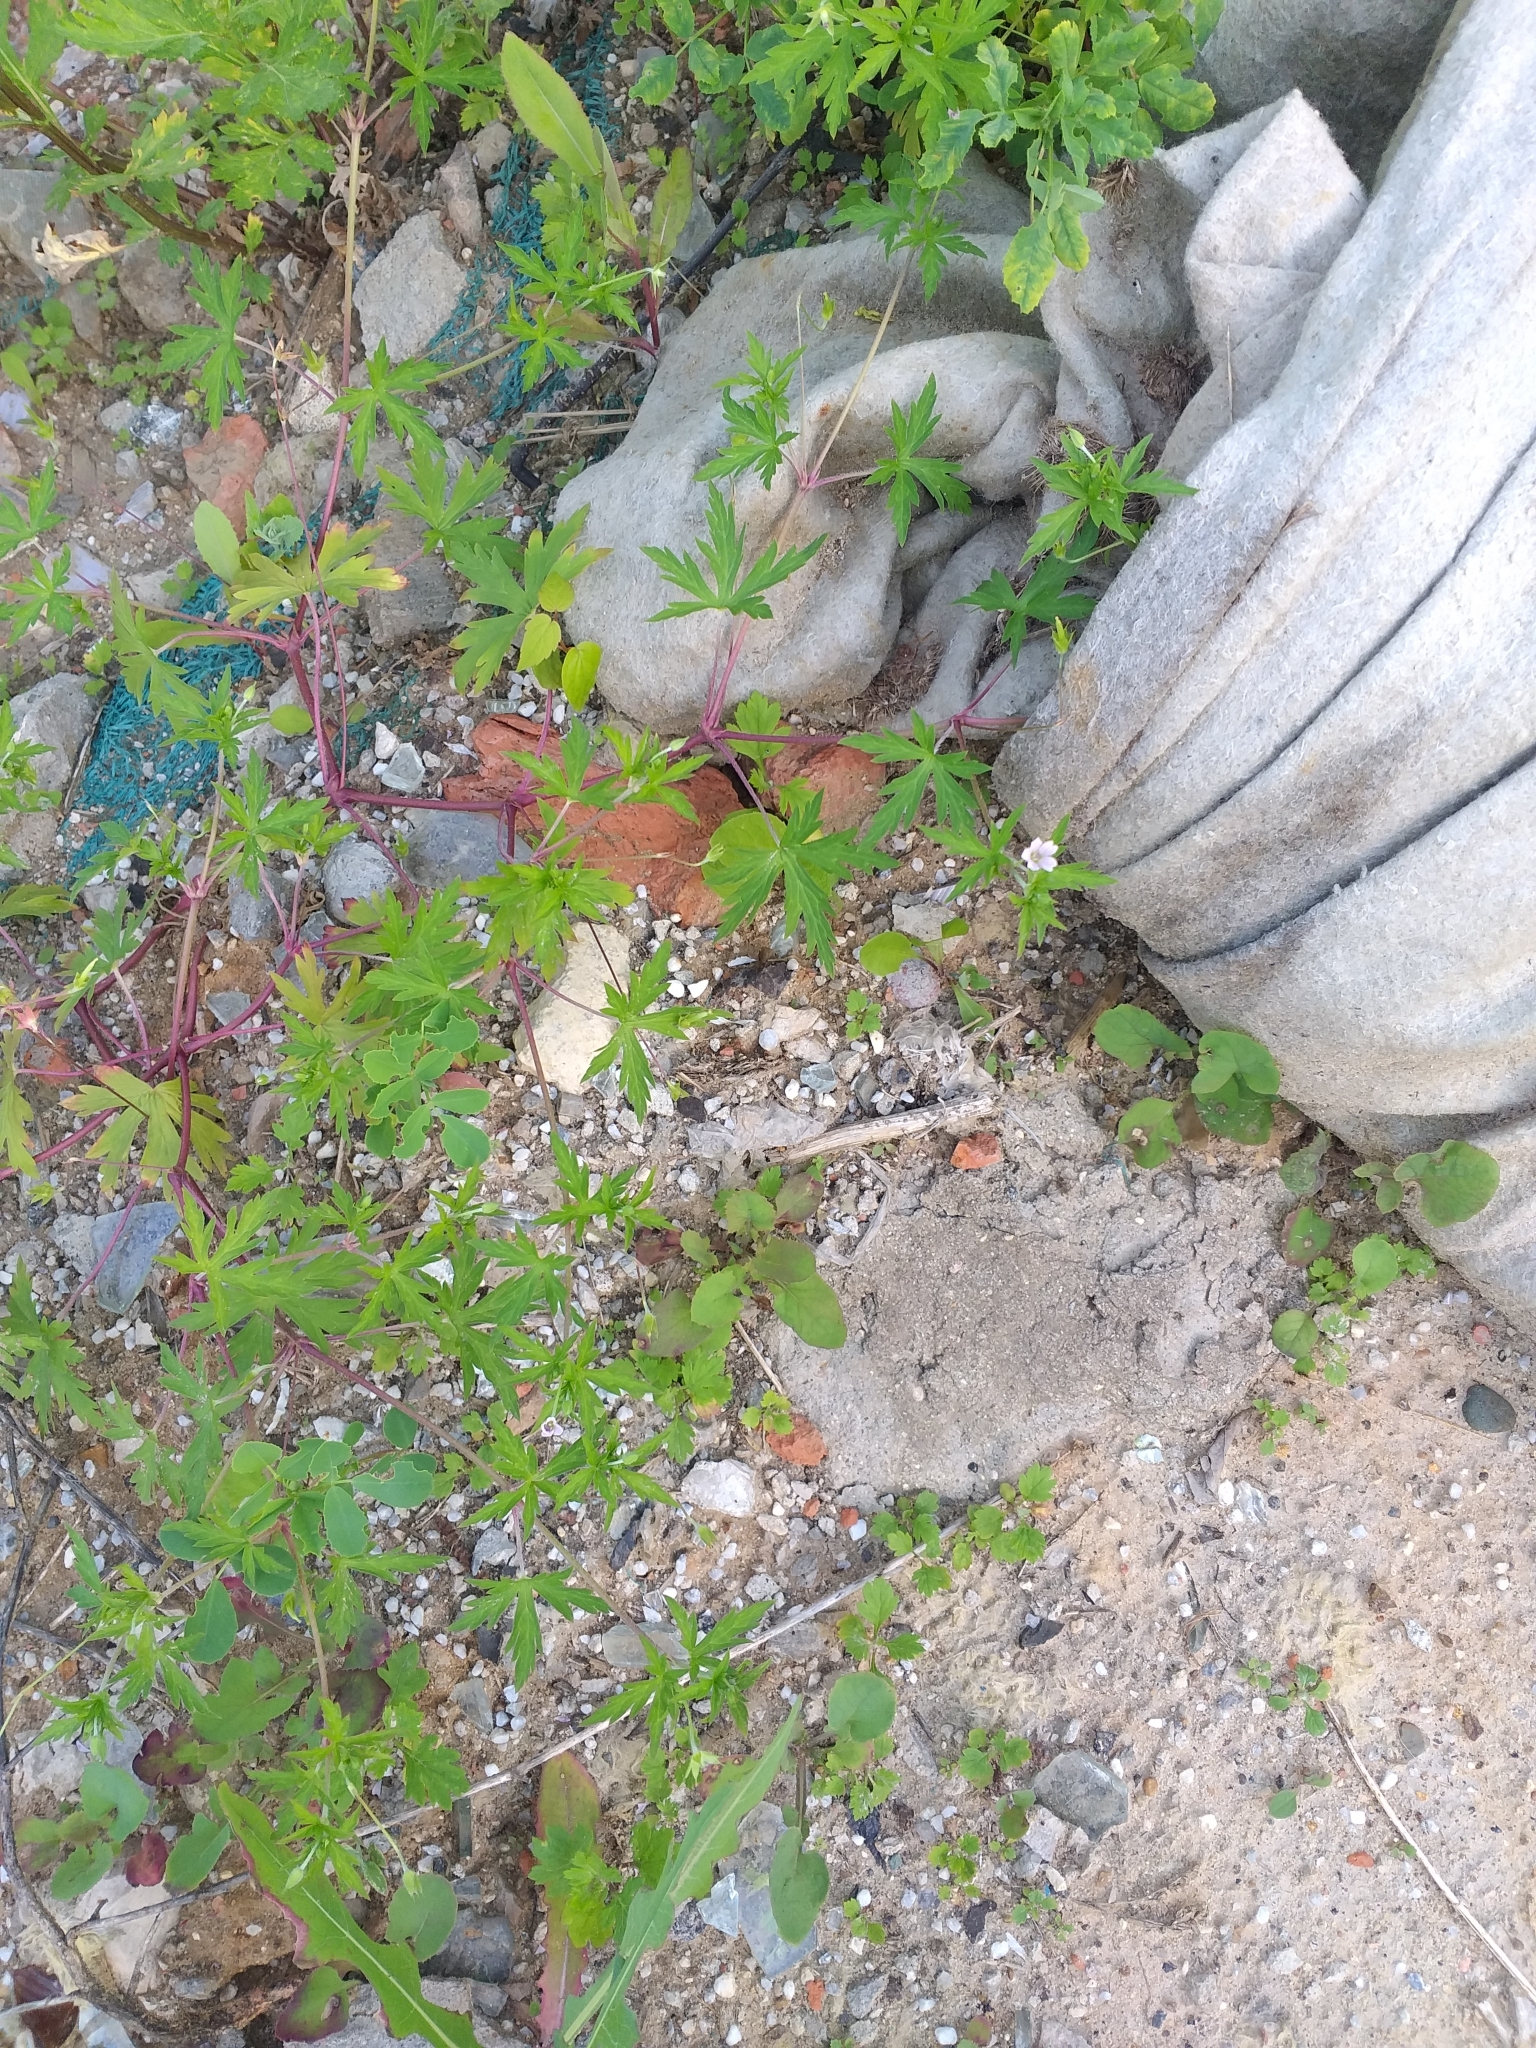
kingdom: Plantae
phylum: Tracheophyta
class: Magnoliopsida
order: Geraniales
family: Geraniaceae
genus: Geranium
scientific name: Geranium sibiricum
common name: Siberian crane's-bill
